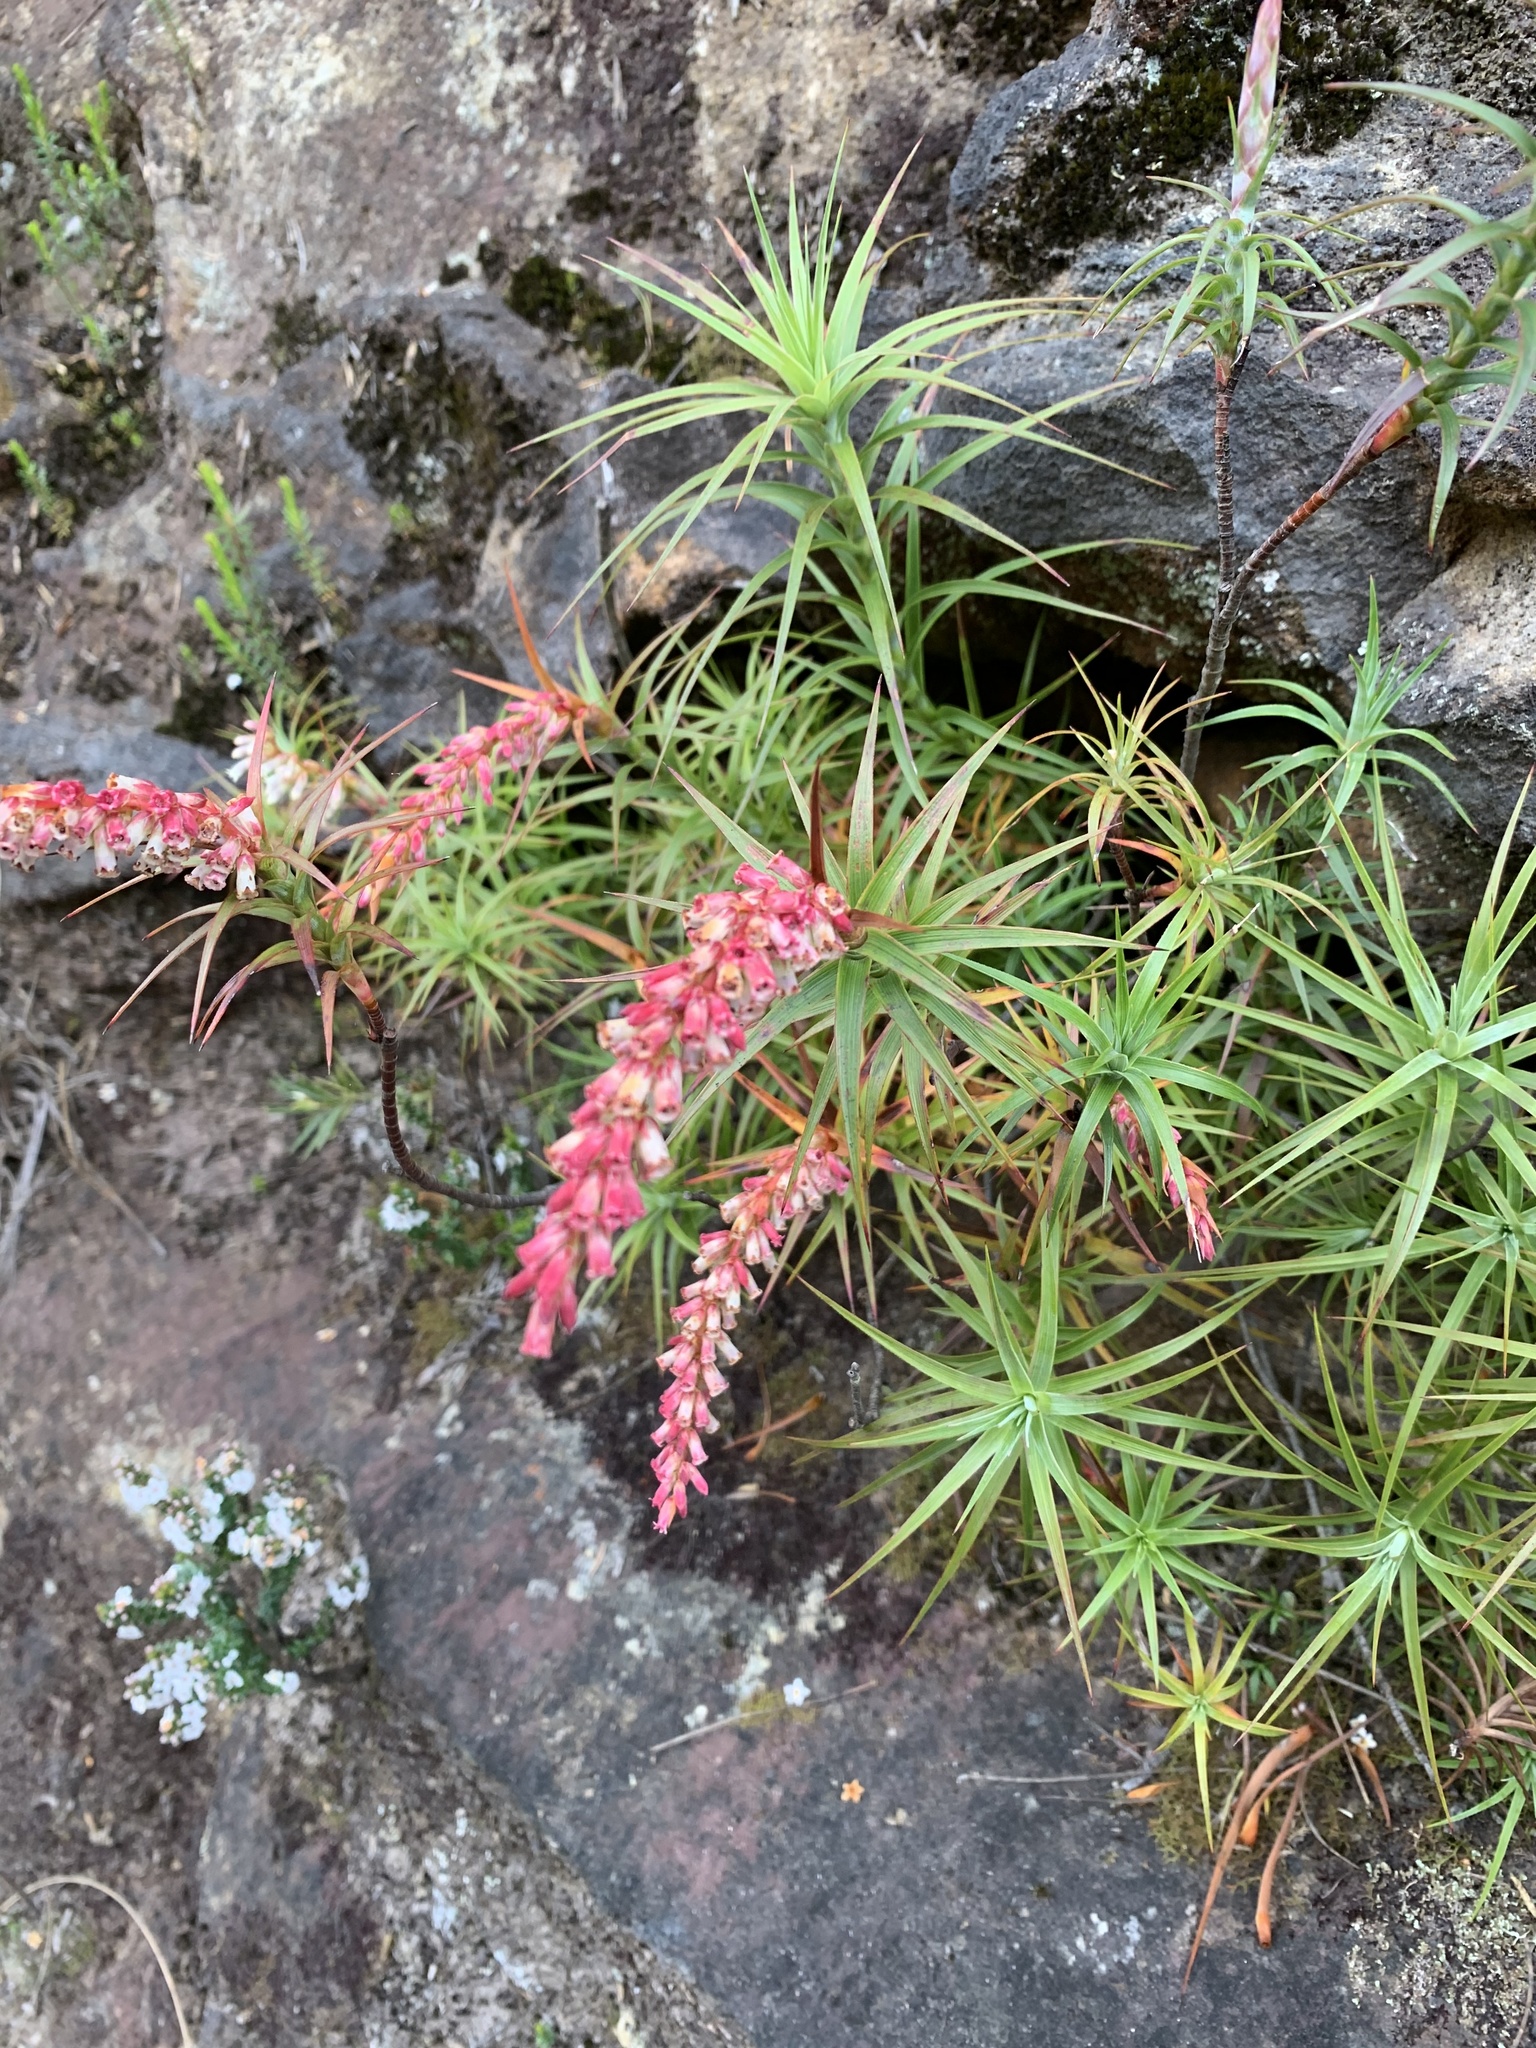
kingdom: Plantae
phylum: Tracheophyta
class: Magnoliopsida
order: Ericales
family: Ericaceae
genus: Dracophyllum
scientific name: Dracophyllum secundum
